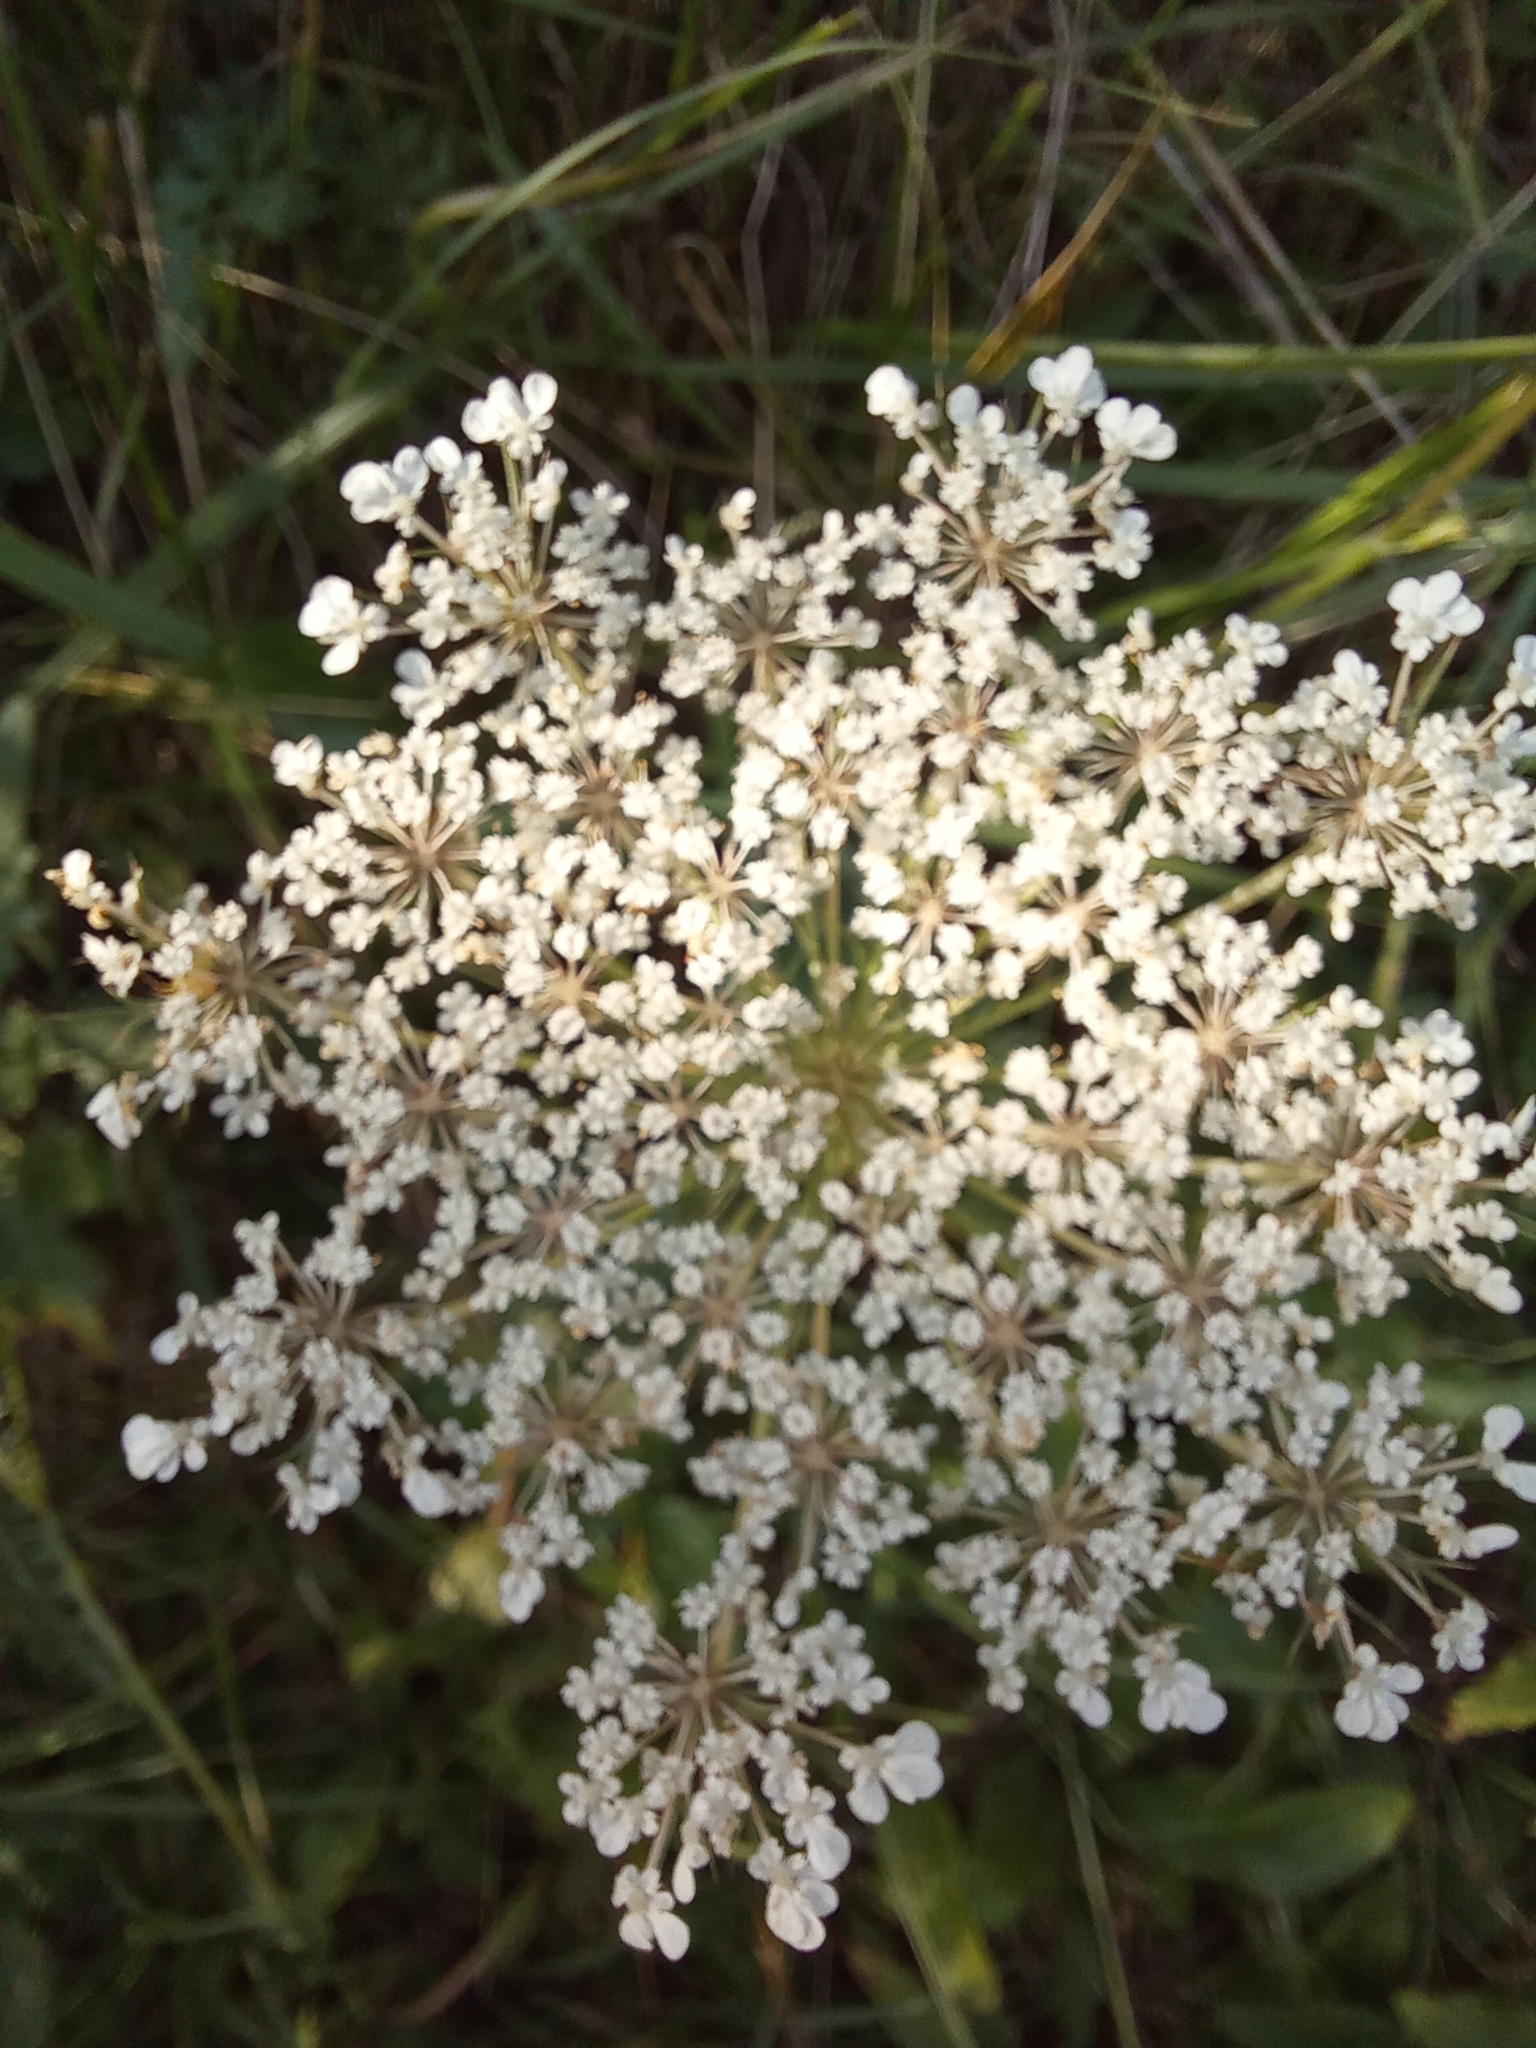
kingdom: Plantae
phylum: Tracheophyta
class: Magnoliopsida
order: Apiales
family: Apiaceae
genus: Daucus
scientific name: Daucus carota
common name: Wild carrot
